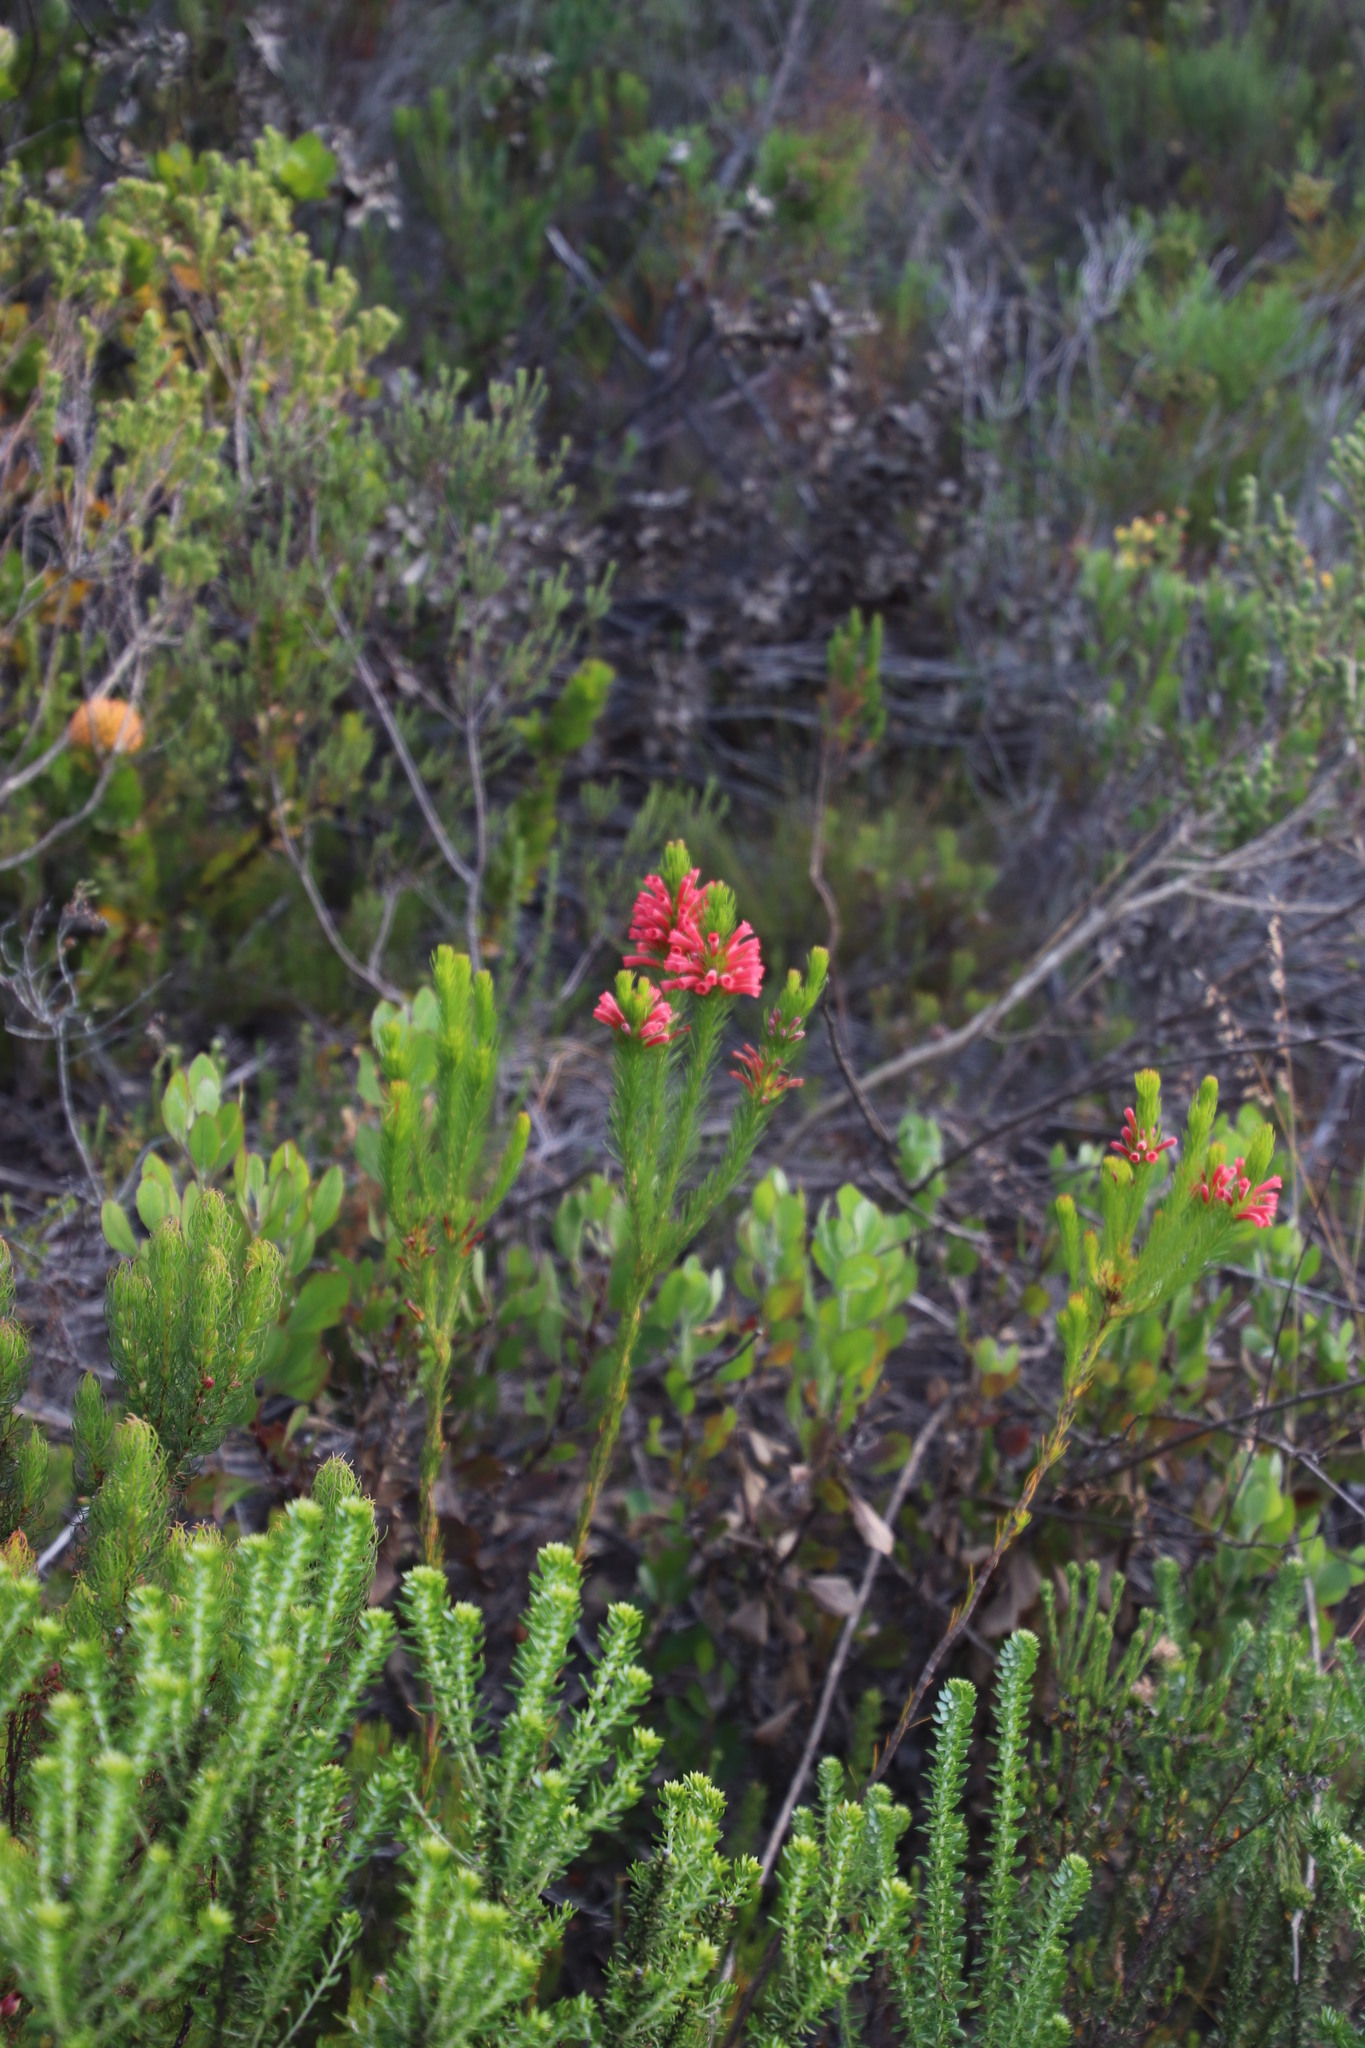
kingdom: Plantae
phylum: Tracheophyta
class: Magnoliopsida
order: Ericales
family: Ericaceae
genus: Erica
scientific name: Erica vestita
